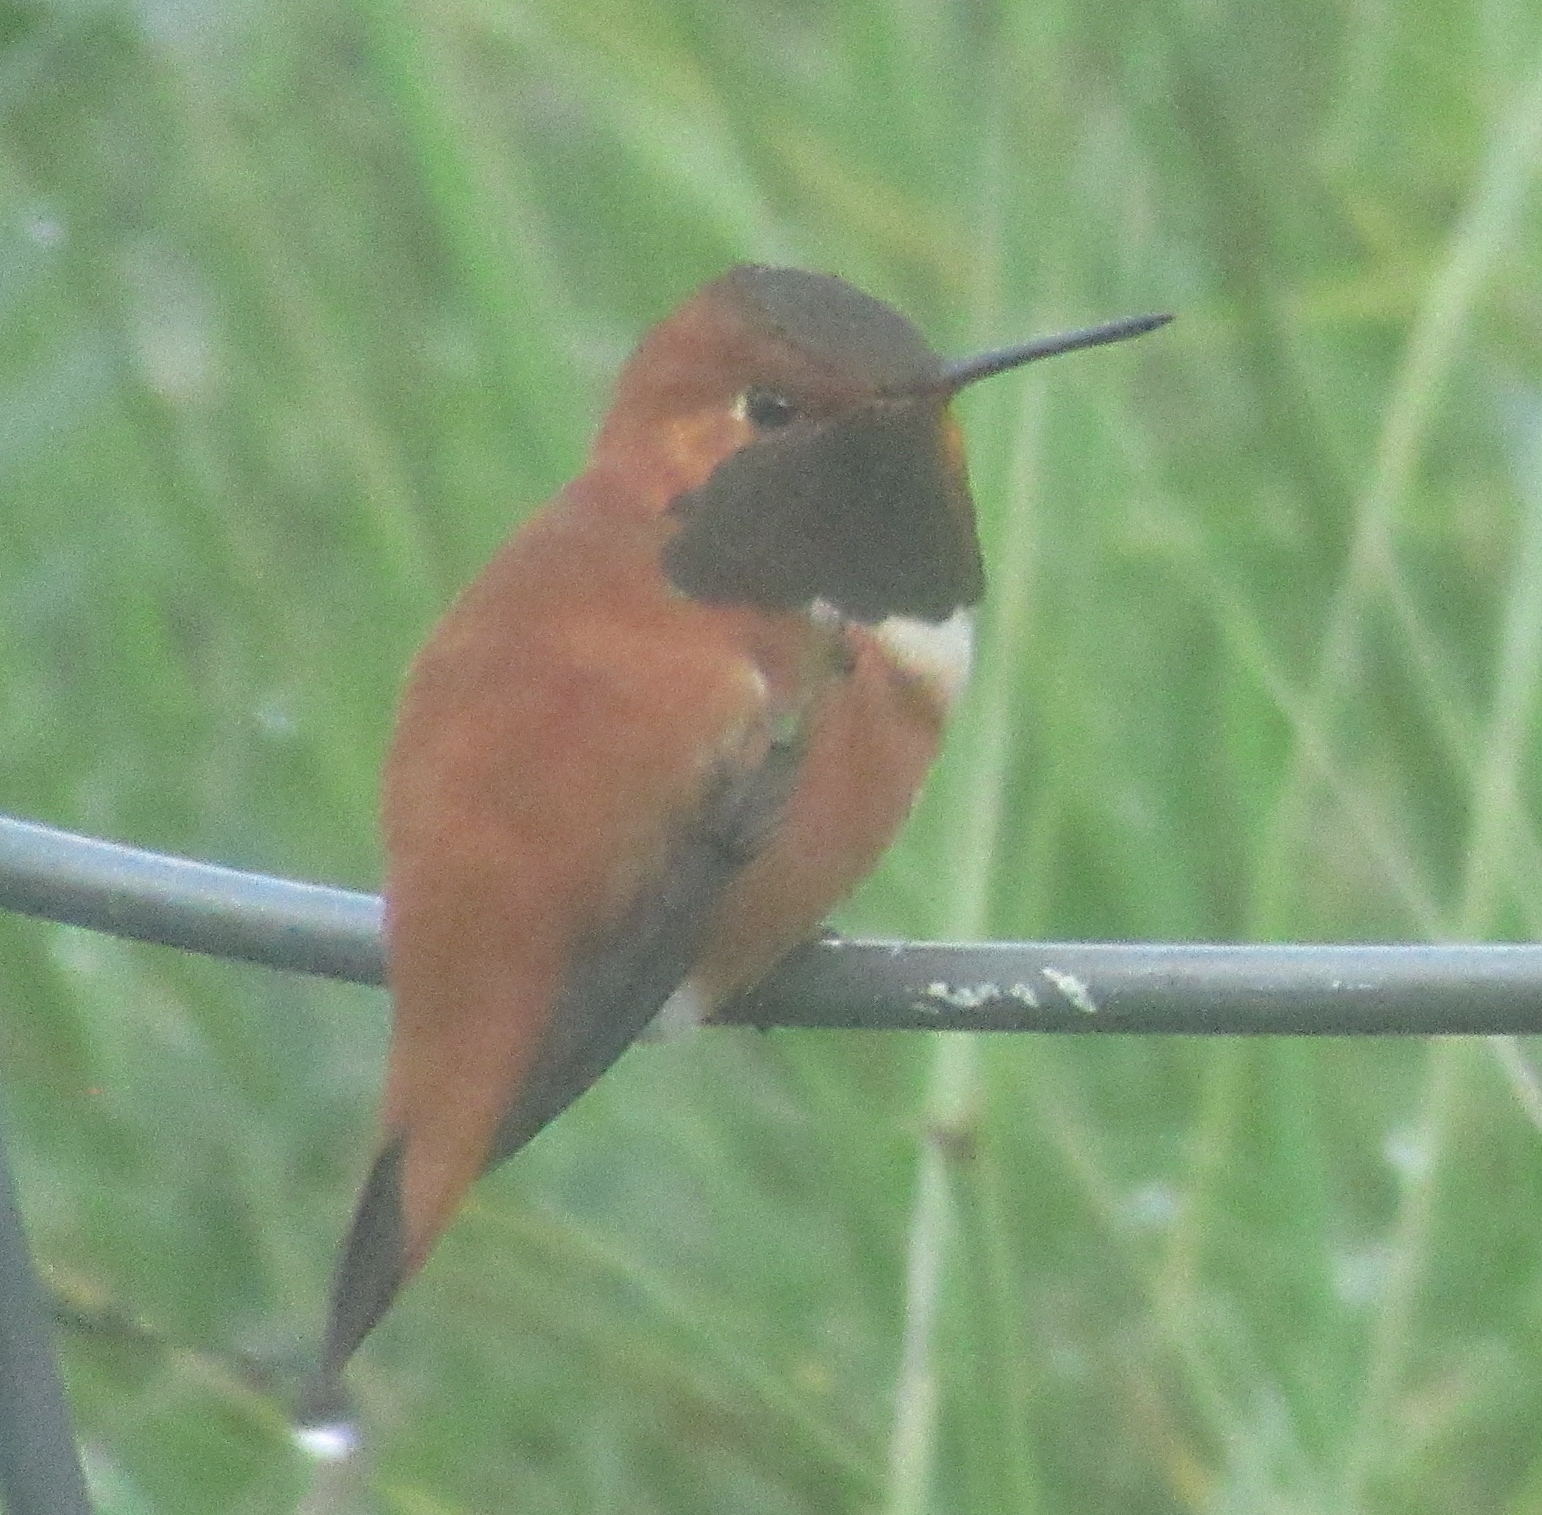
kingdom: Animalia
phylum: Chordata
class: Aves
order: Apodiformes
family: Trochilidae
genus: Selasphorus
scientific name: Selasphorus rufus
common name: Rufous hummingbird
